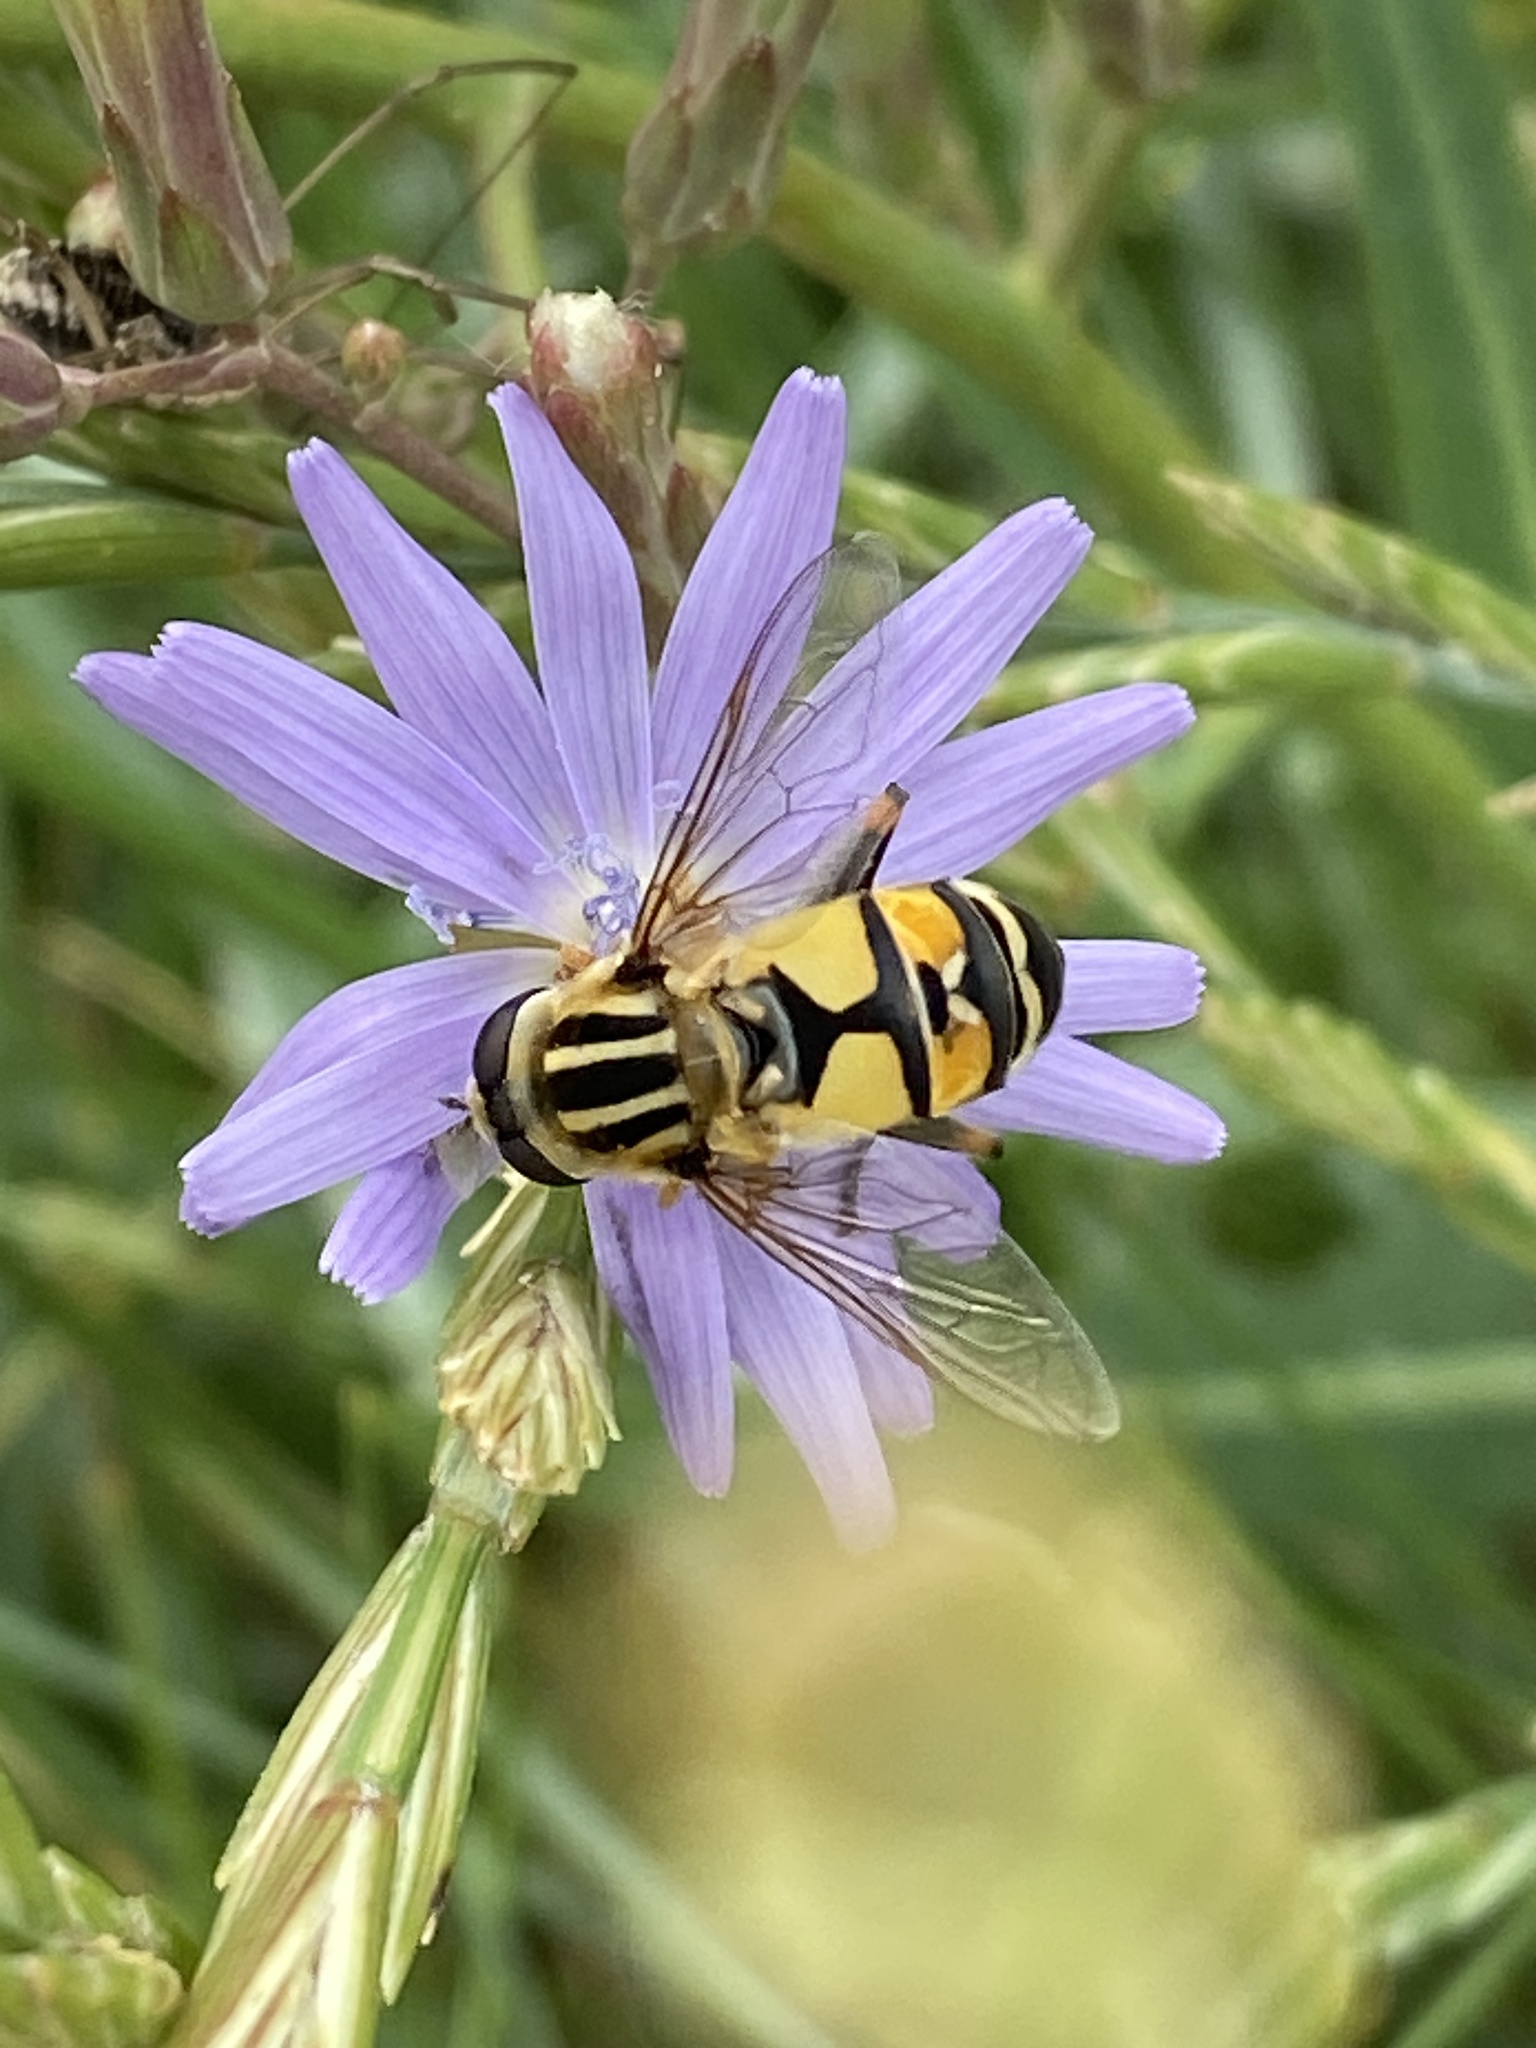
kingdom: Animalia
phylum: Arthropoda
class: Insecta
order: Diptera
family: Syrphidae
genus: Helophilus
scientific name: Helophilus trivittatus
